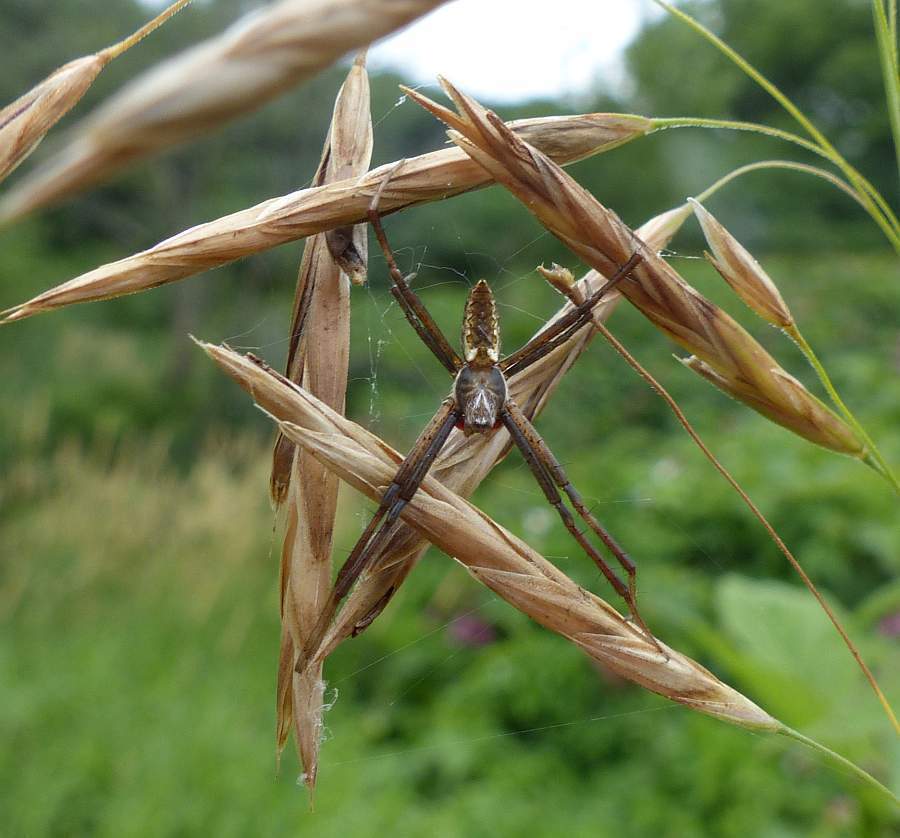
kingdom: Animalia
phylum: Arthropoda
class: Arachnida
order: Araneae
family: Araneidae
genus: Argiope
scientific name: Argiope aurantia
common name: Orb weavers
